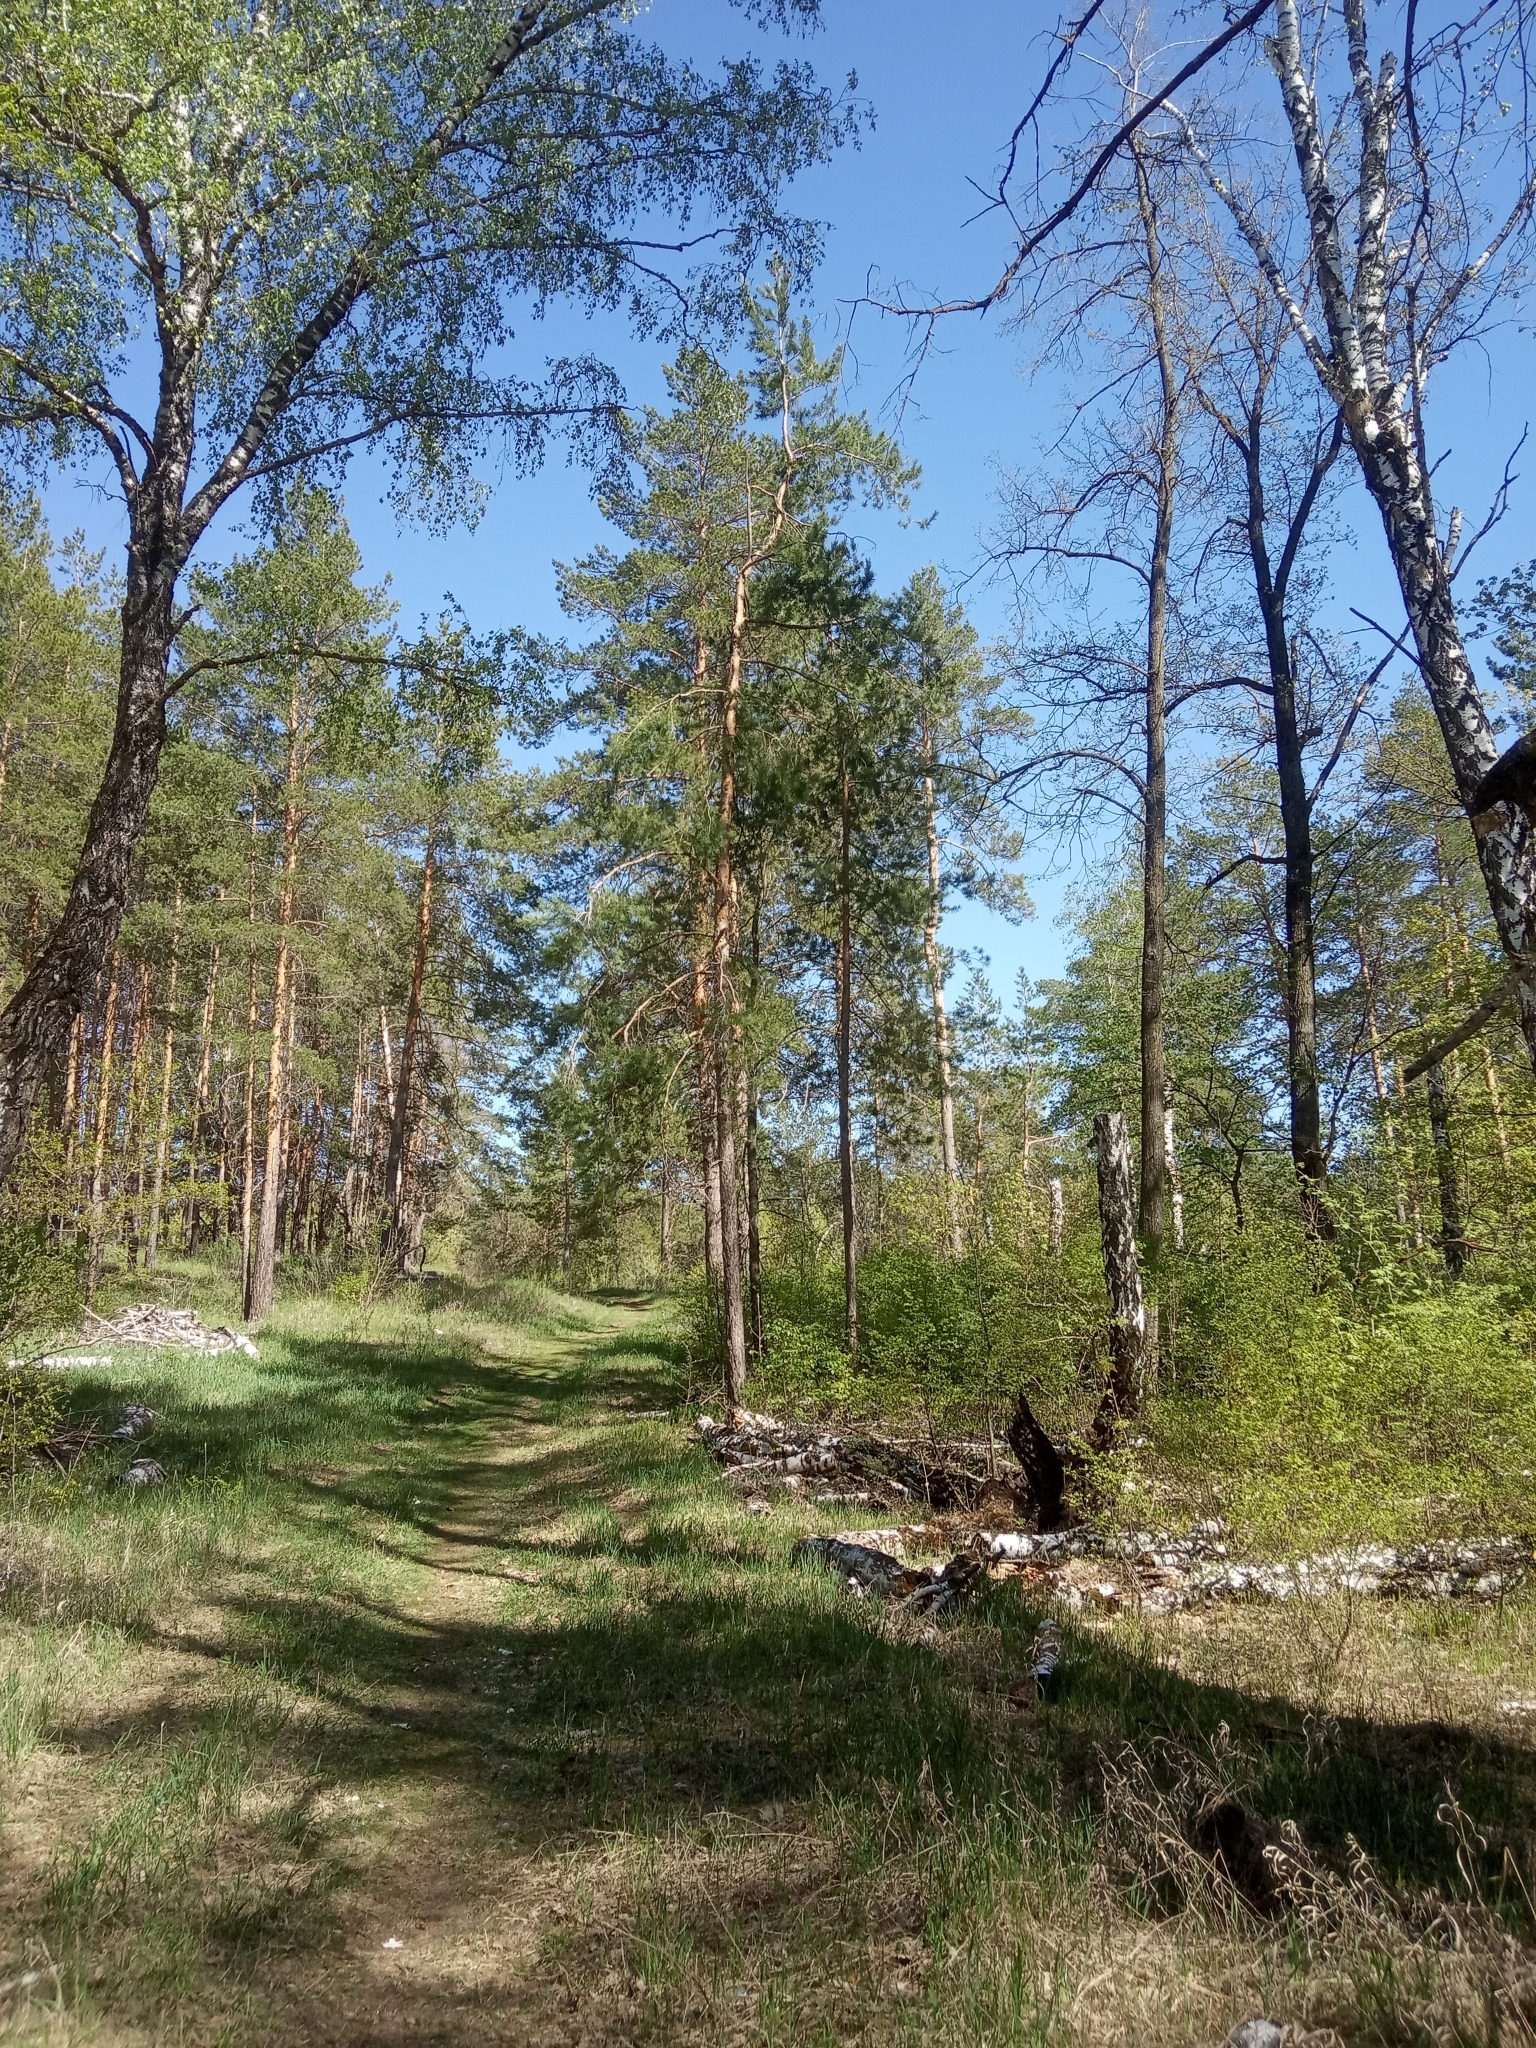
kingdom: Plantae
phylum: Tracheophyta
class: Pinopsida
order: Pinales
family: Pinaceae
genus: Pinus
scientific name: Pinus sylvestris
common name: Scots pine
